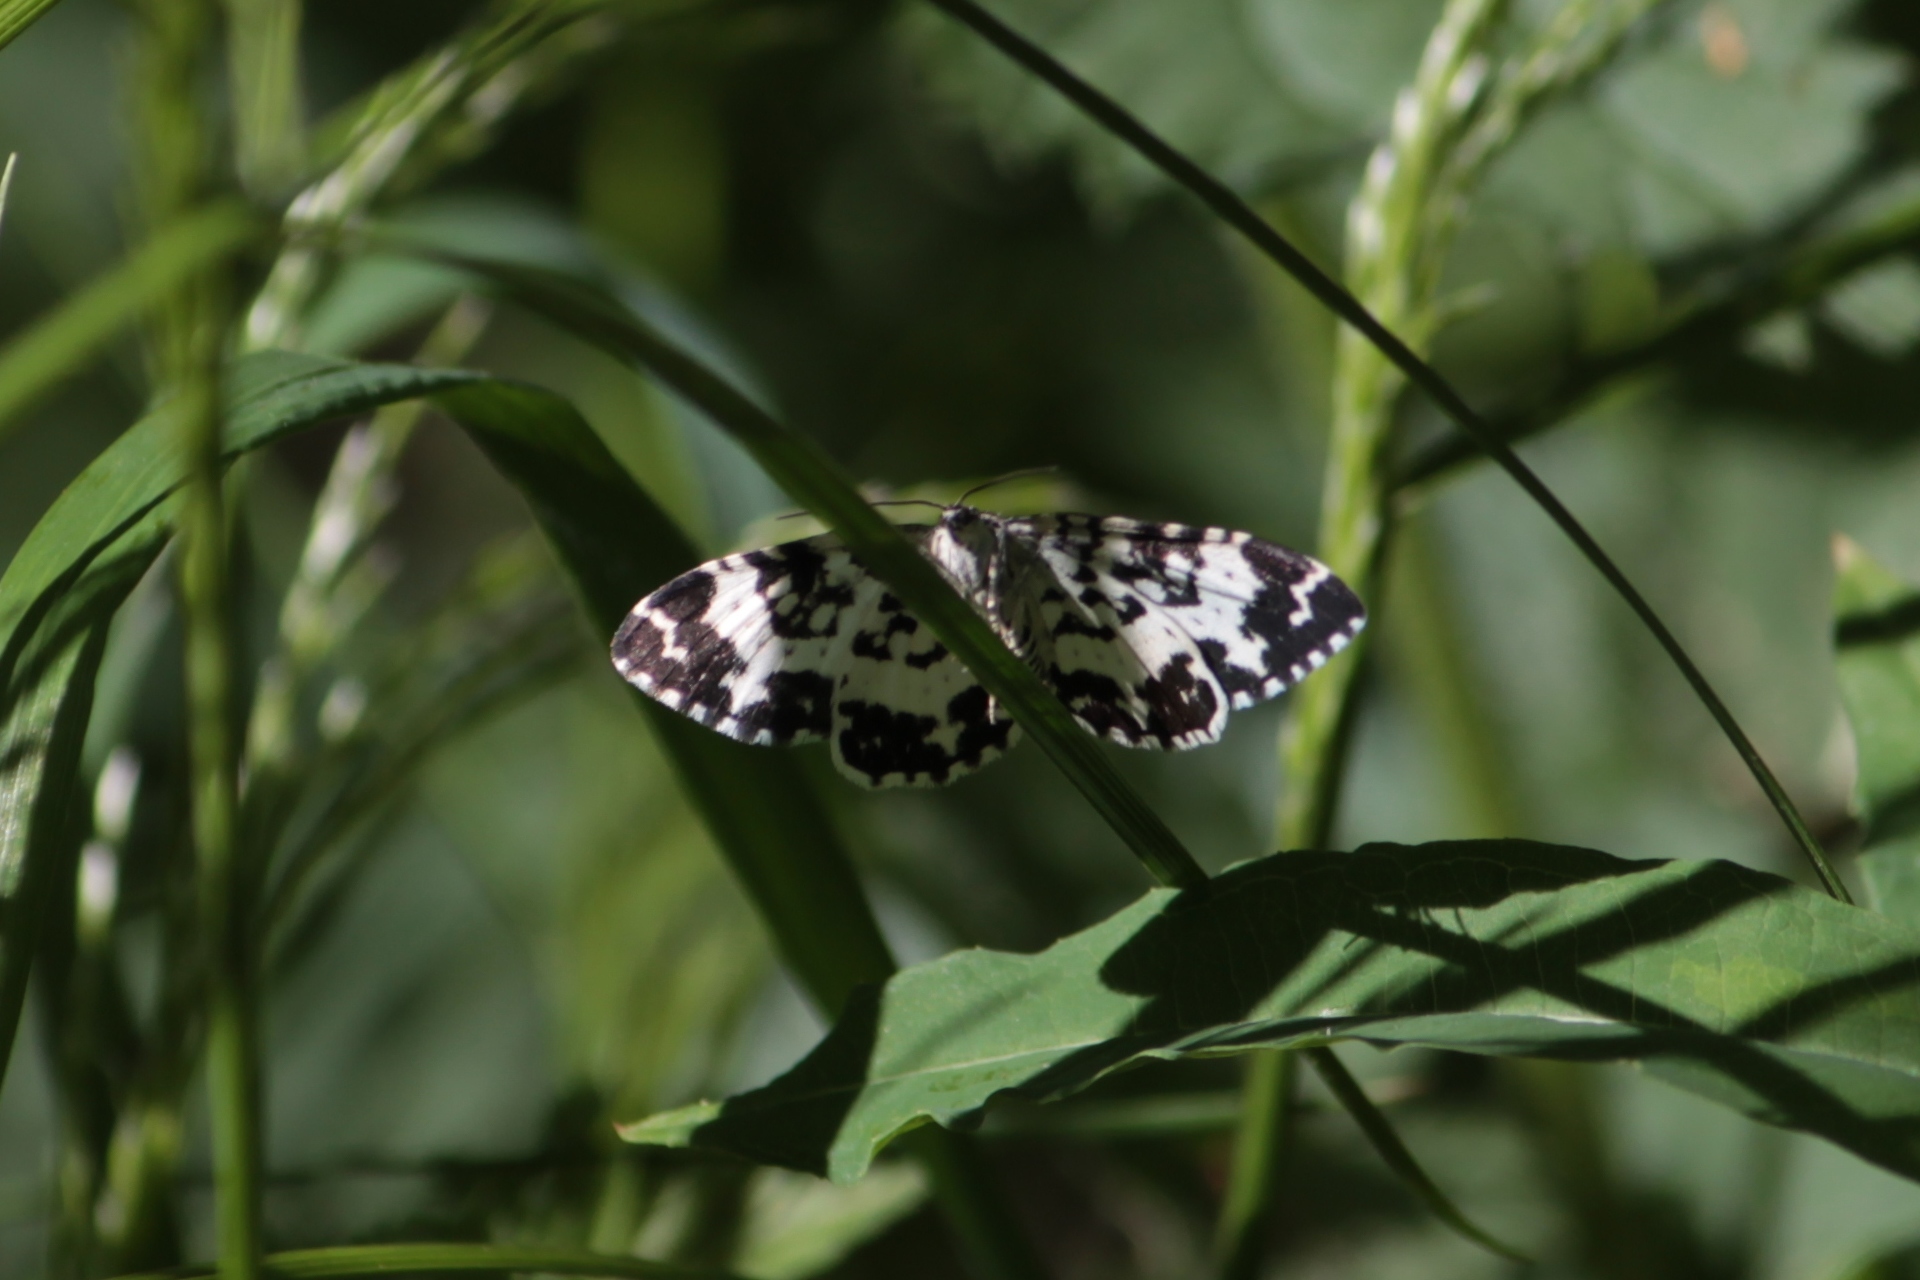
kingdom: Animalia
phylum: Arthropoda
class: Insecta
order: Lepidoptera
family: Geometridae
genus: Rheumaptera
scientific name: Rheumaptera hastata
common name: Argent & sable
